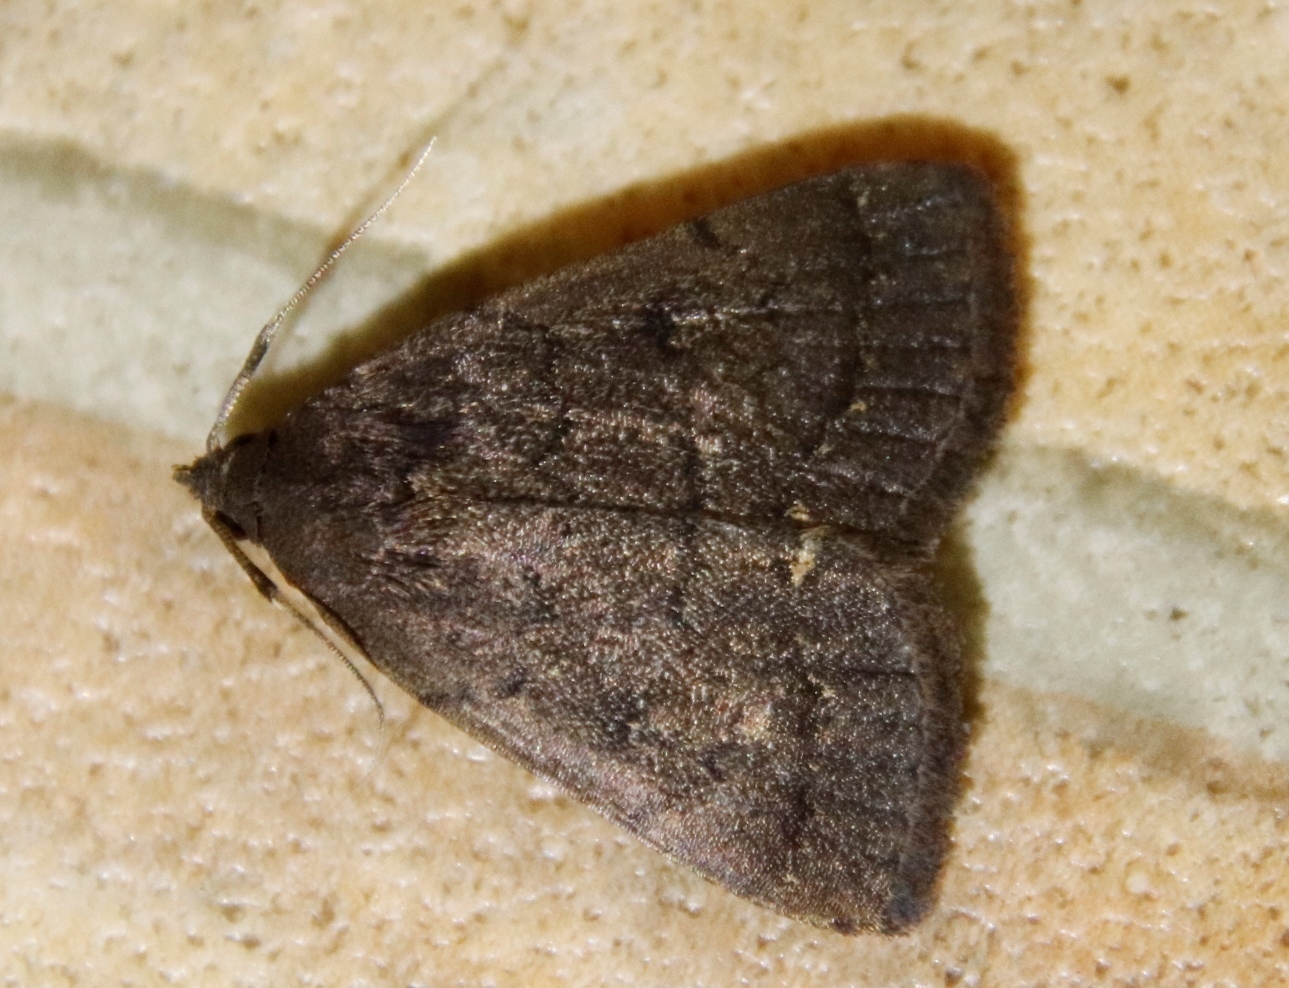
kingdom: Animalia
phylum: Arthropoda
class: Insecta
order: Lepidoptera
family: Erebidae
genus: Nodaria
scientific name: Nodaria nodosalis
